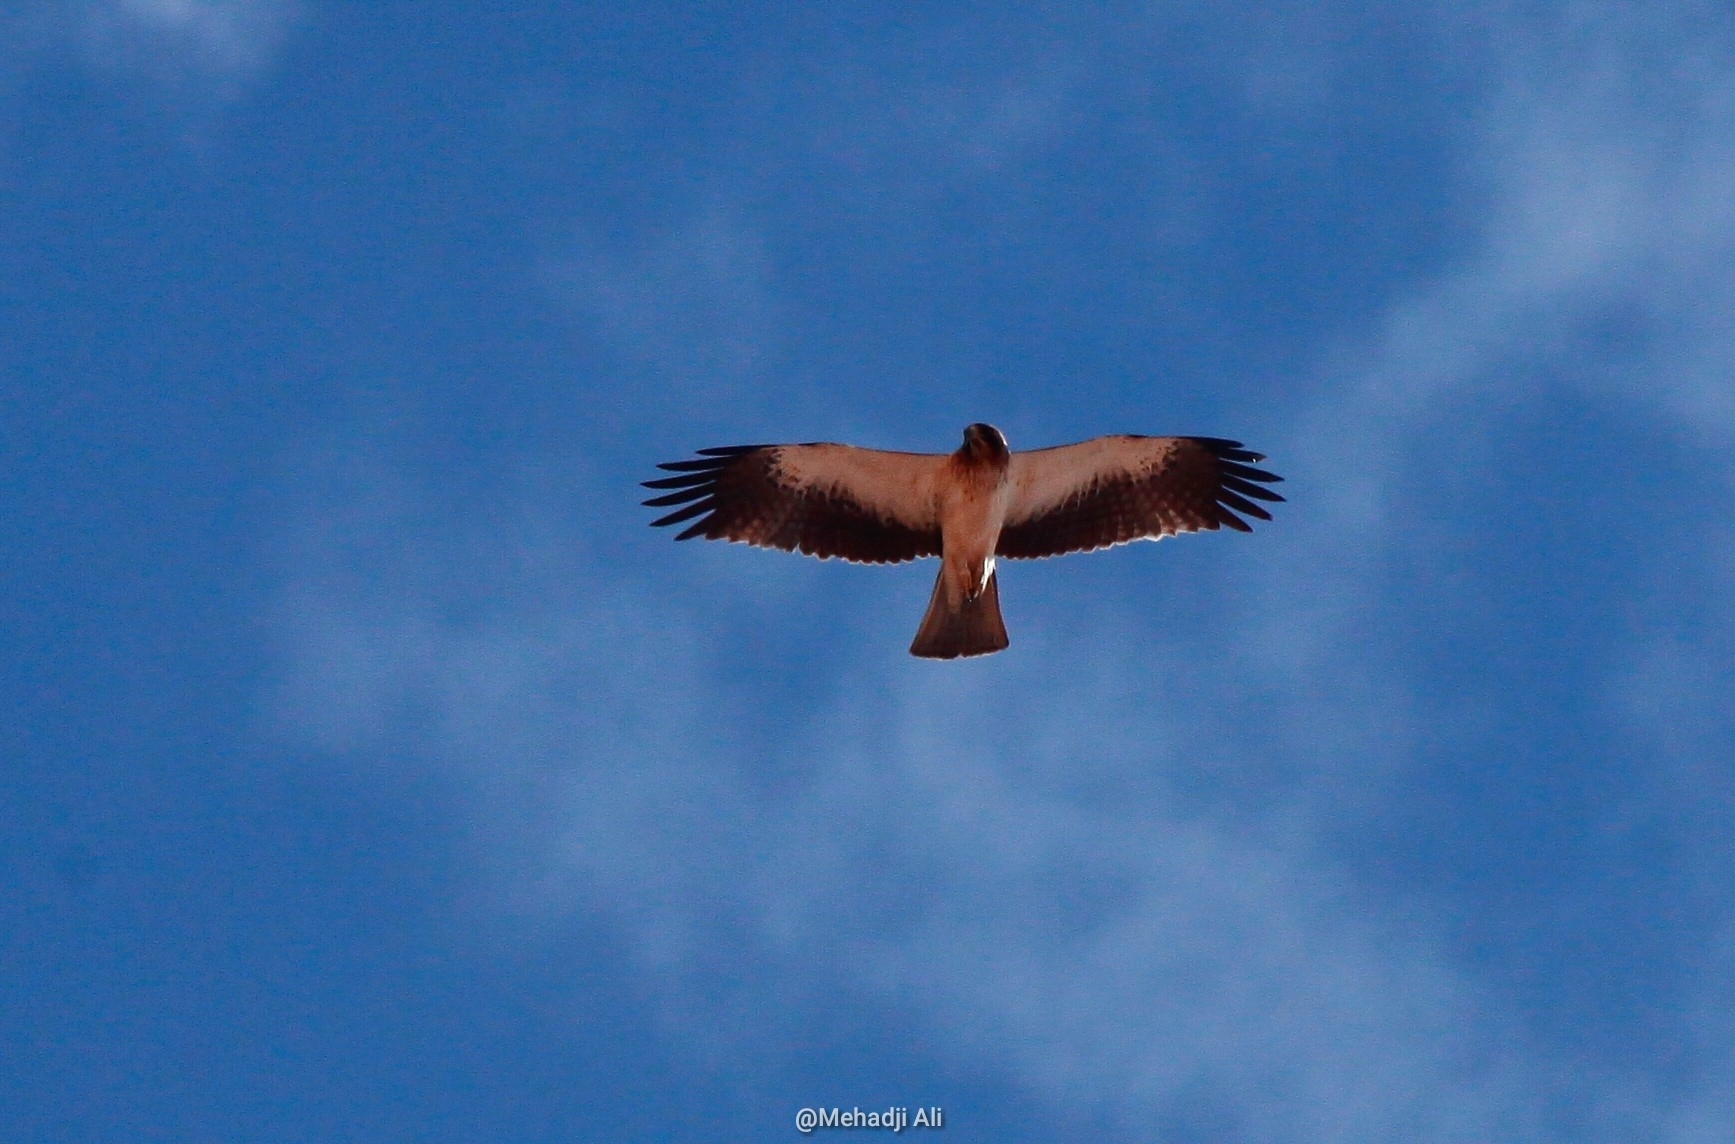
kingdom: Animalia
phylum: Chordata
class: Aves
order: Accipitriformes
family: Accipitridae
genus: Hieraaetus
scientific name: Hieraaetus pennatus
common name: Booted eagle
